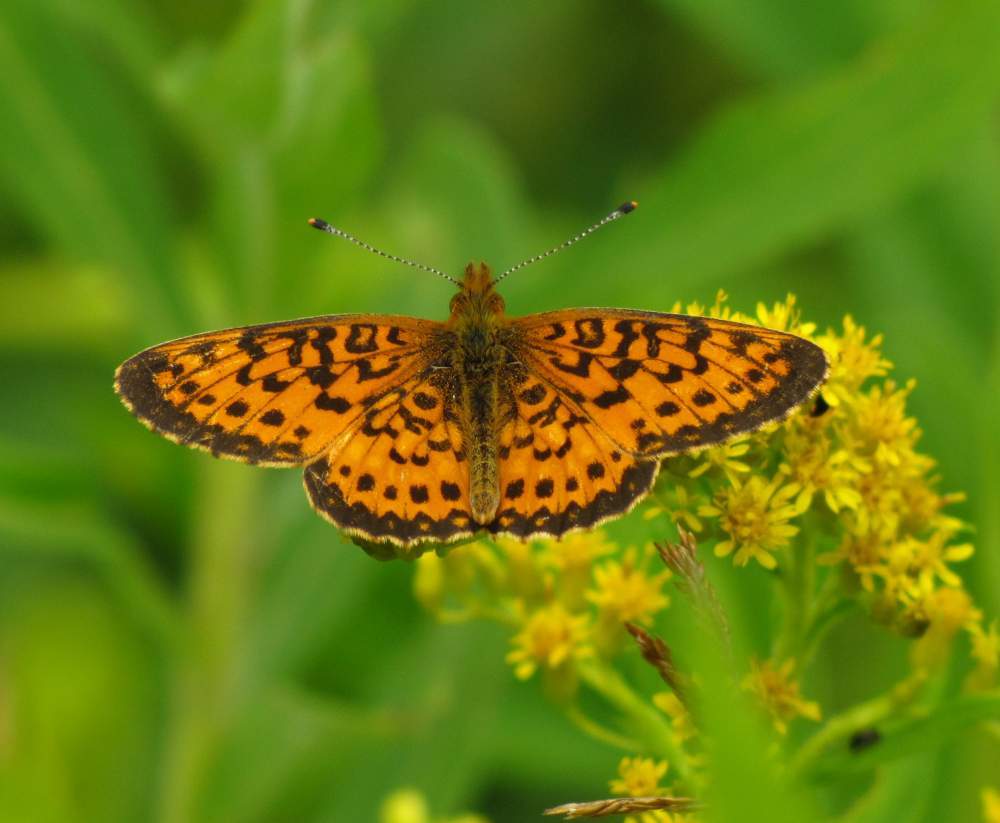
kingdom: Animalia
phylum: Arthropoda
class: Insecta
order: Lepidoptera
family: Nymphalidae
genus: Boloria
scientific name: Boloria
